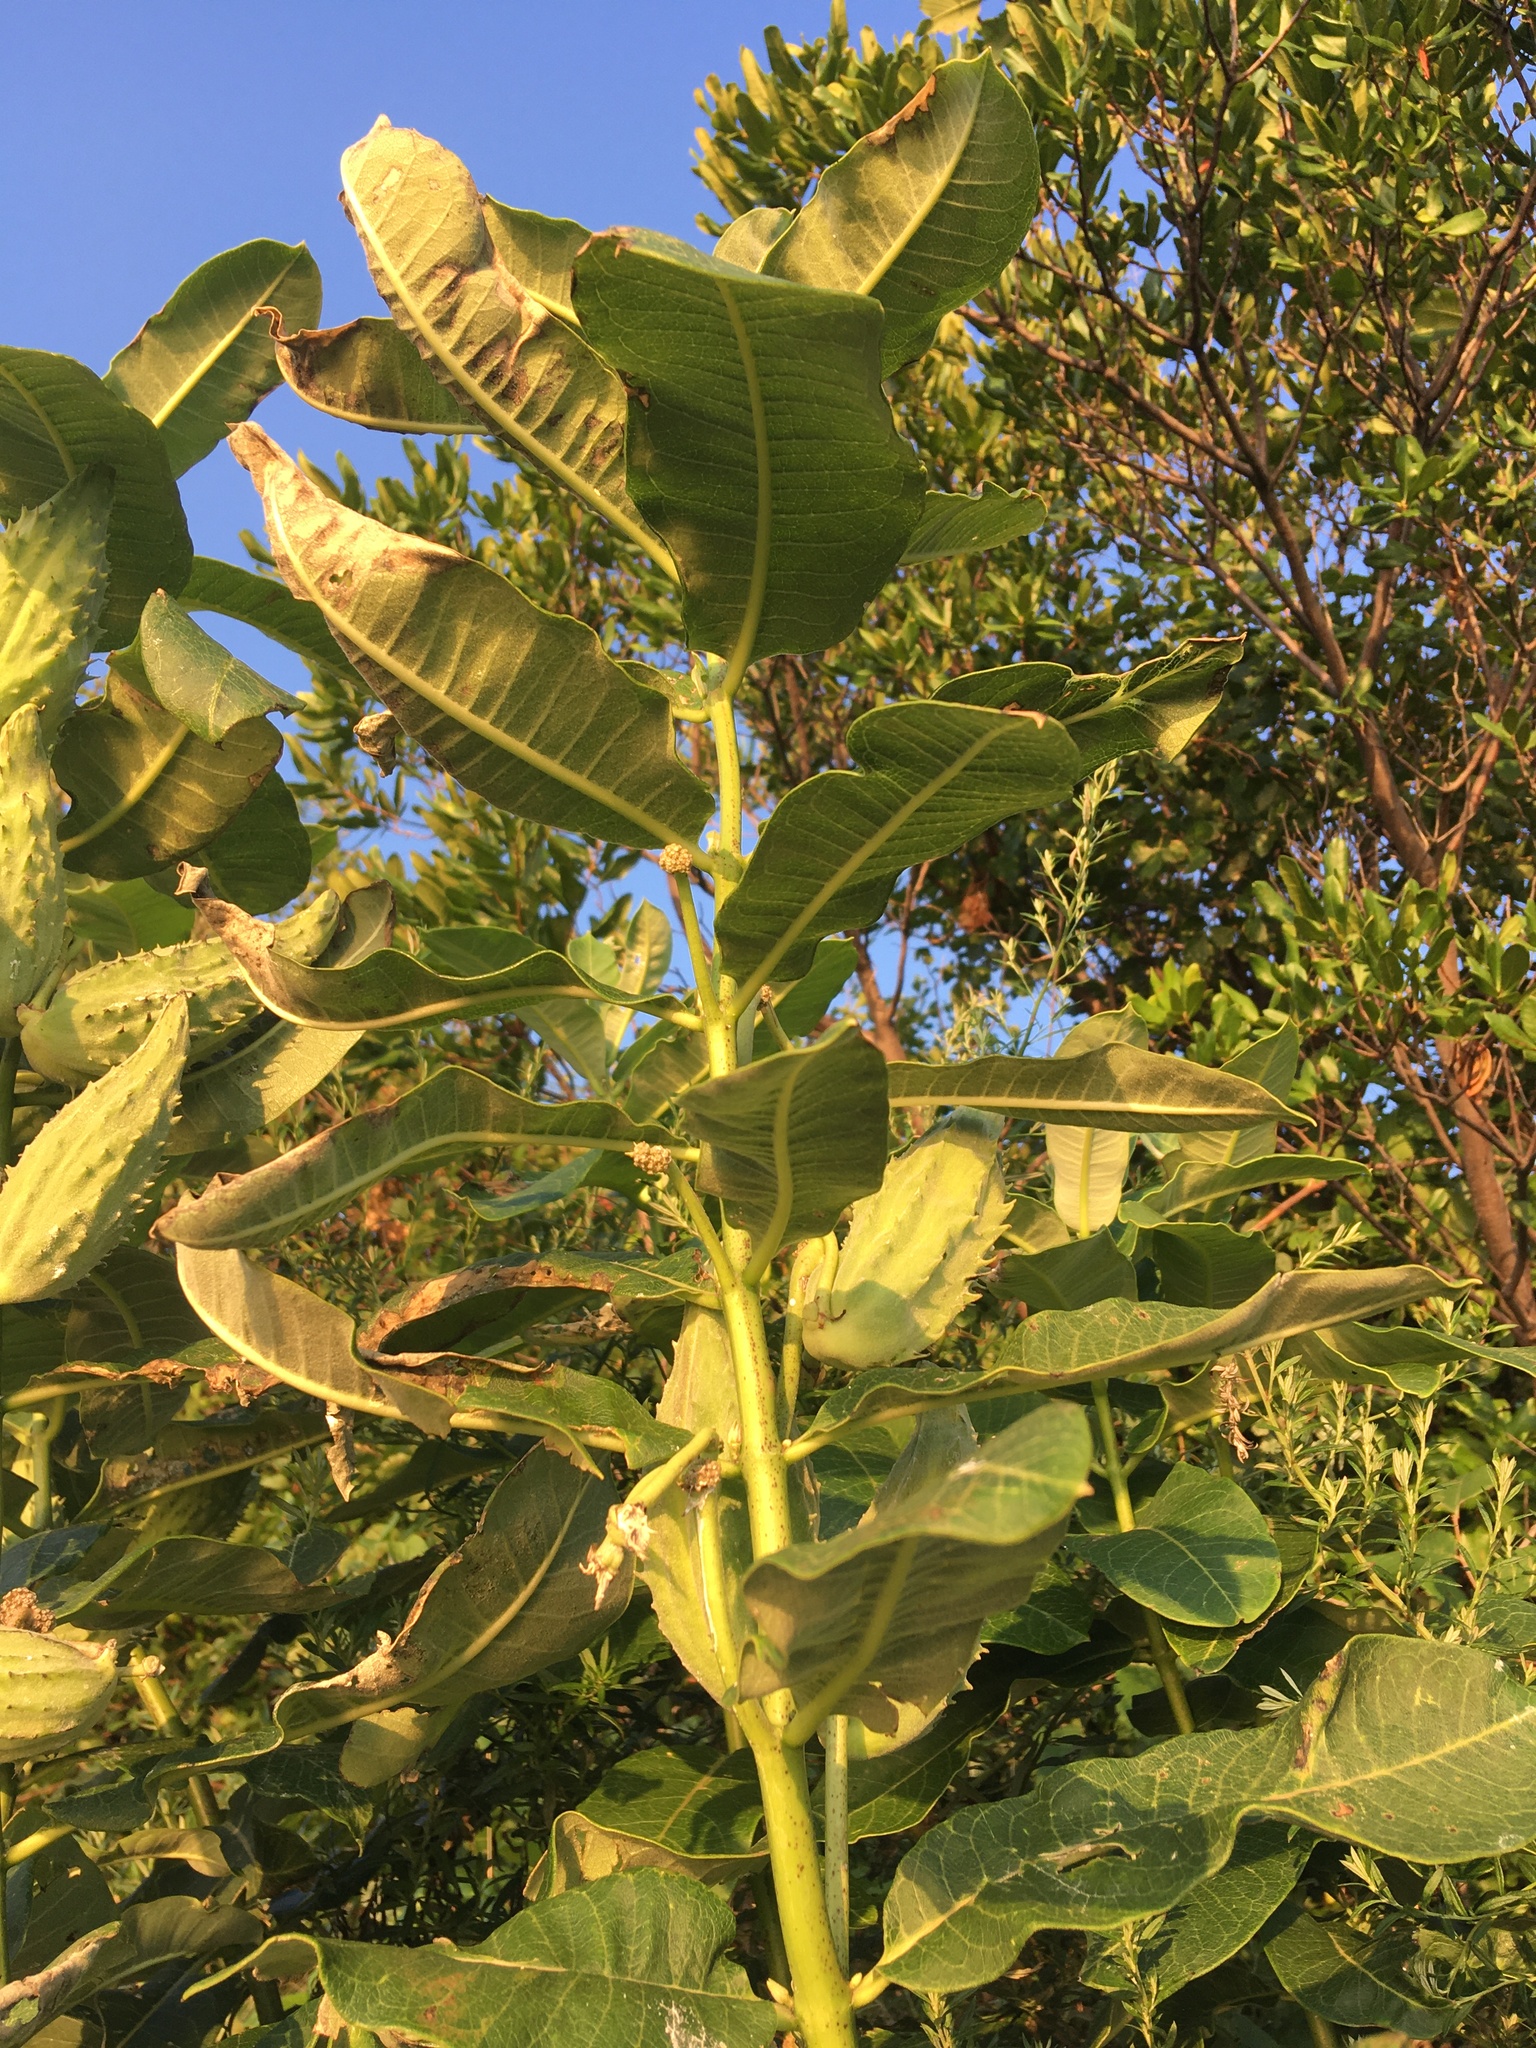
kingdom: Plantae
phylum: Tracheophyta
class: Magnoliopsida
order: Gentianales
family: Apocynaceae
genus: Asclepias
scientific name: Asclepias syriaca
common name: Common milkweed
